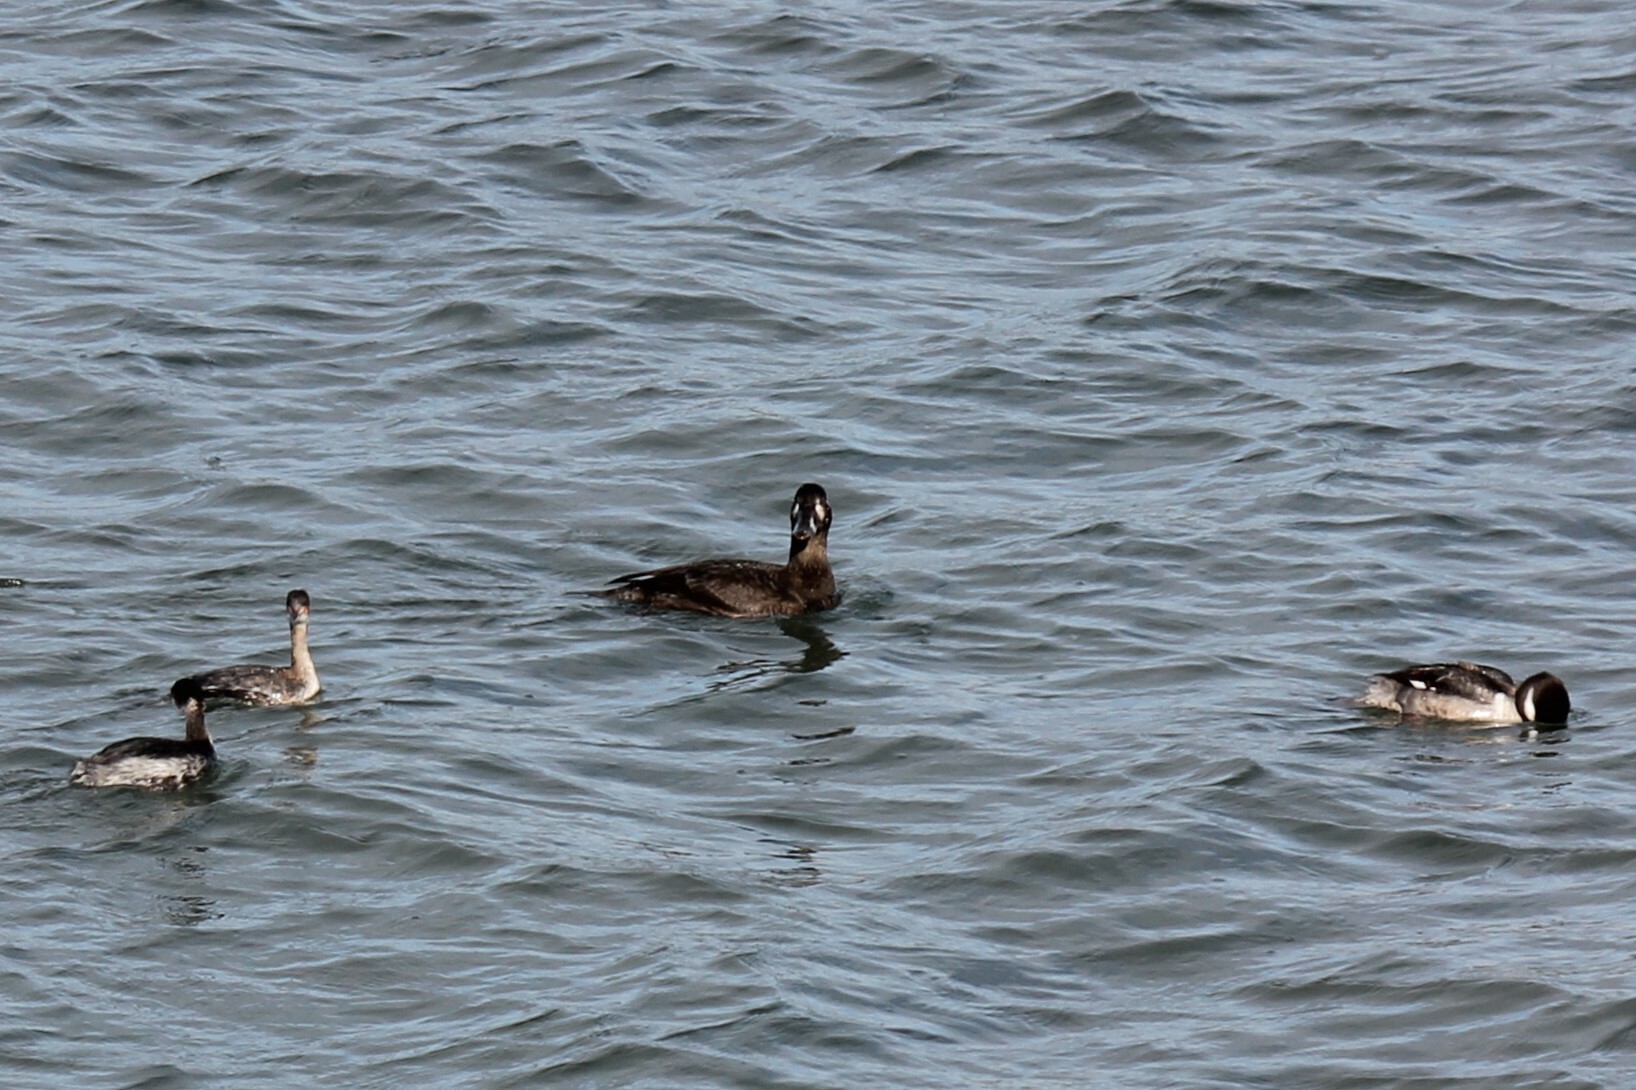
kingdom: Animalia
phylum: Chordata
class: Aves
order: Anseriformes
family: Anatidae
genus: Melanitta
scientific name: Melanitta perspicillata
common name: Surf scoter
